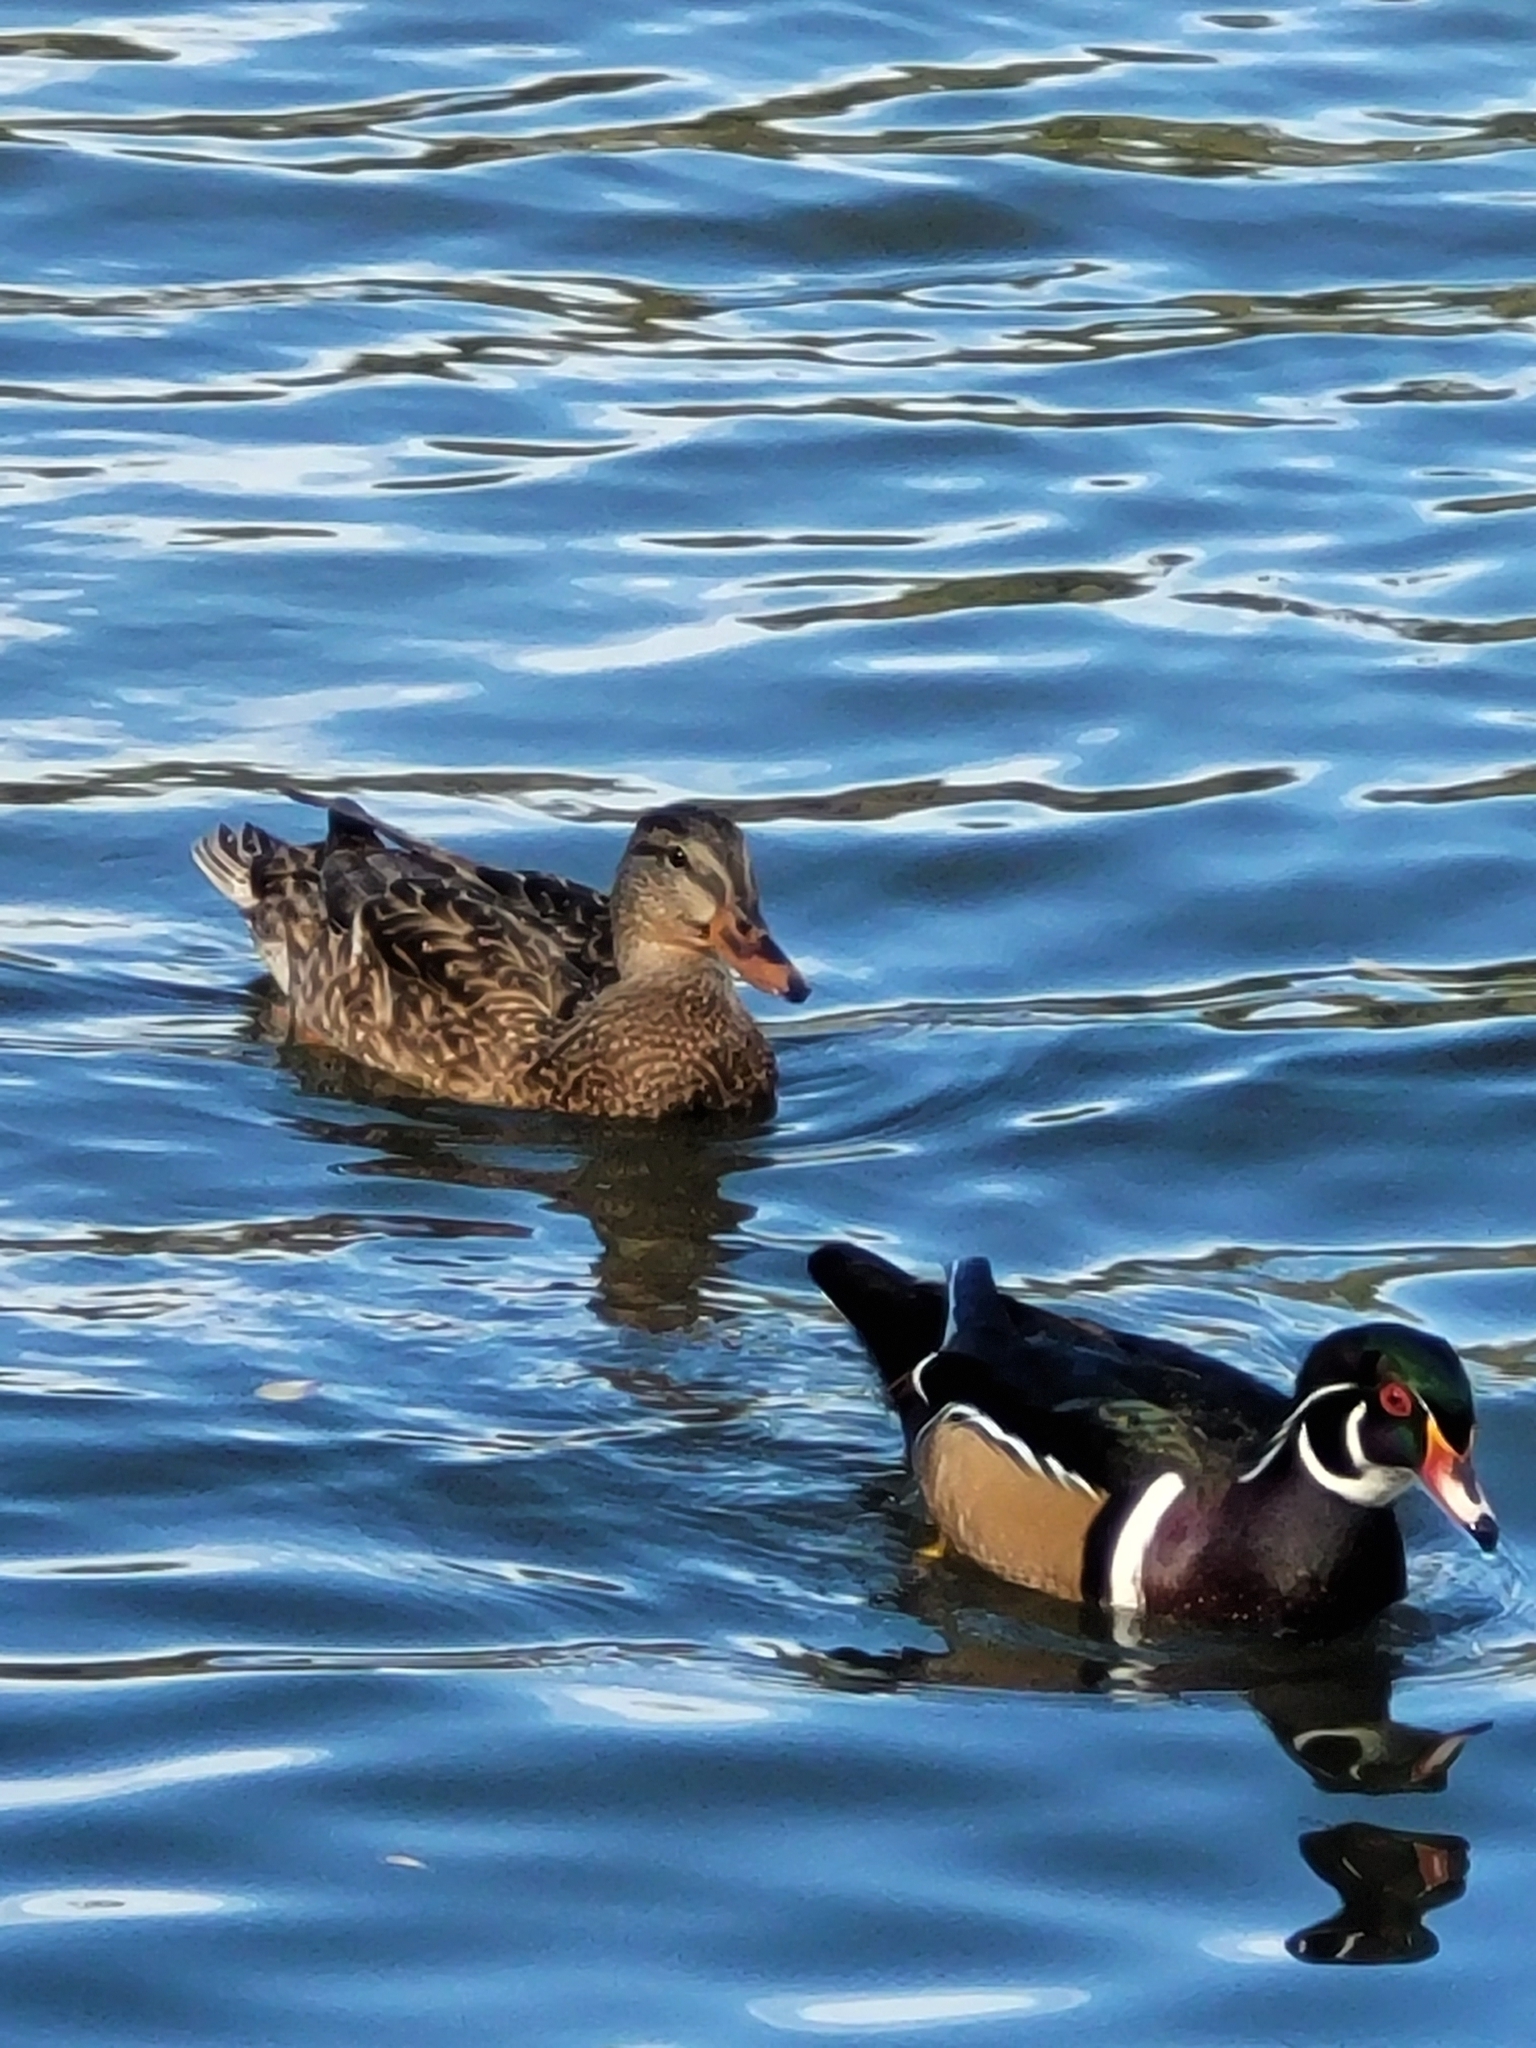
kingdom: Animalia
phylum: Chordata
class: Aves
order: Anseriformes
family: Anatidae
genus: Anas
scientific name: Anas platyrhynchos
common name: Mallard
